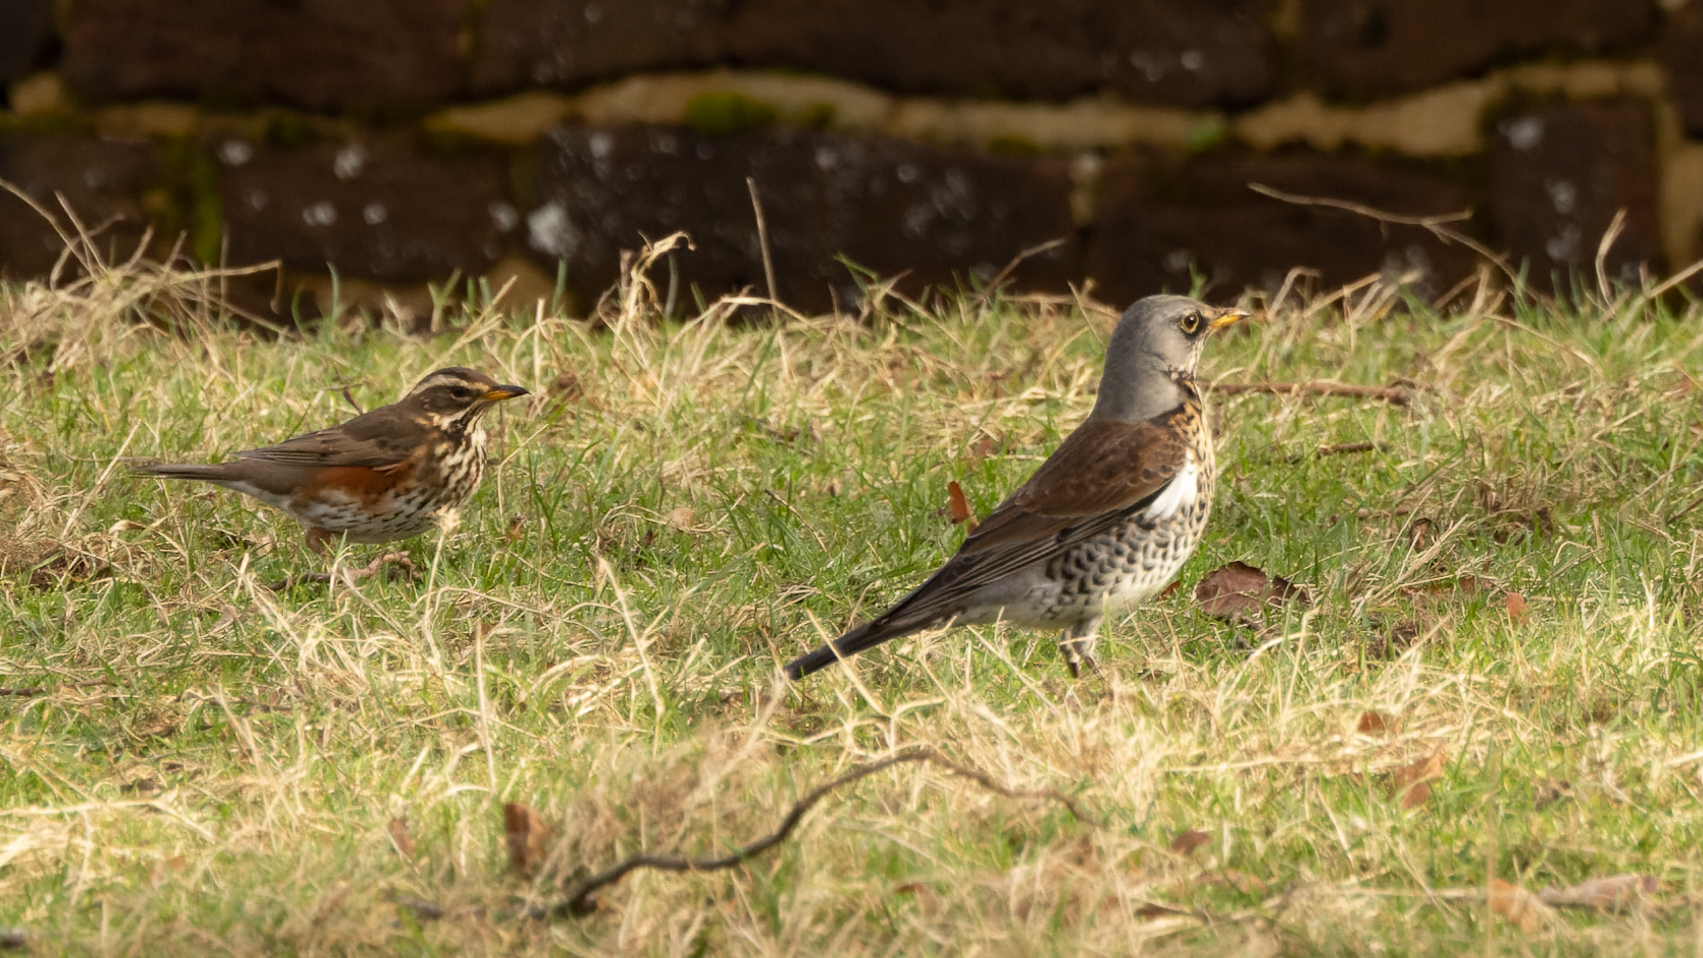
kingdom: Animalia
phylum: Chordata
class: Aves
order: Passeriformes
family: Turdidae
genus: Turdus
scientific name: Turdus pilaris
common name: Fieldfare
